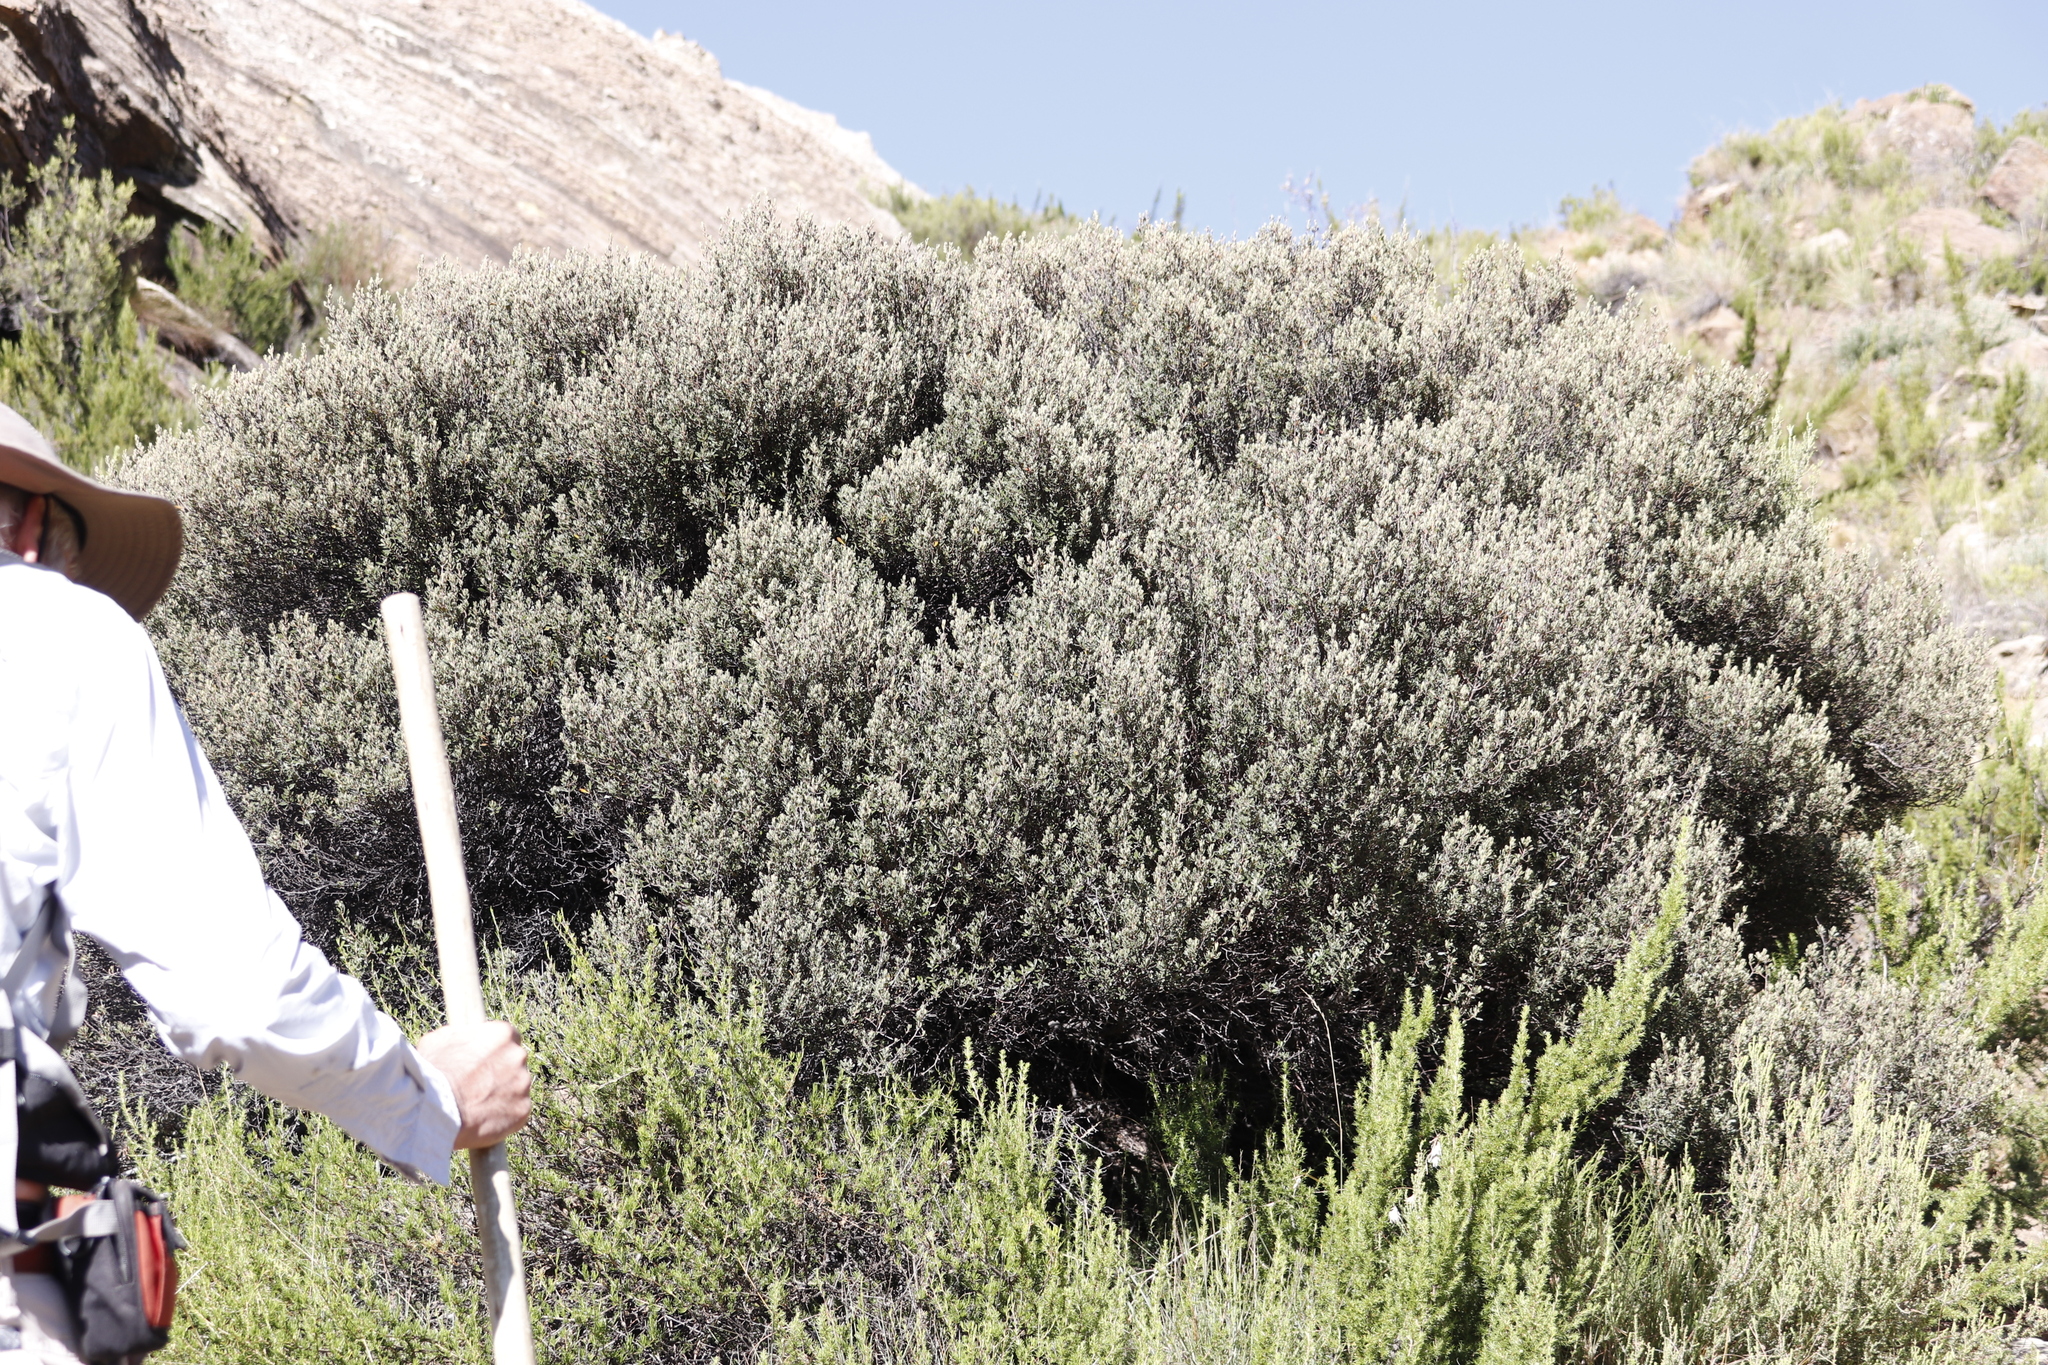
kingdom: Plantae
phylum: Tracheophyta
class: Magnoliopsida
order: Ericales
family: Ebenaceae
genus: Diospyros
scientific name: Diospyros pubescens
